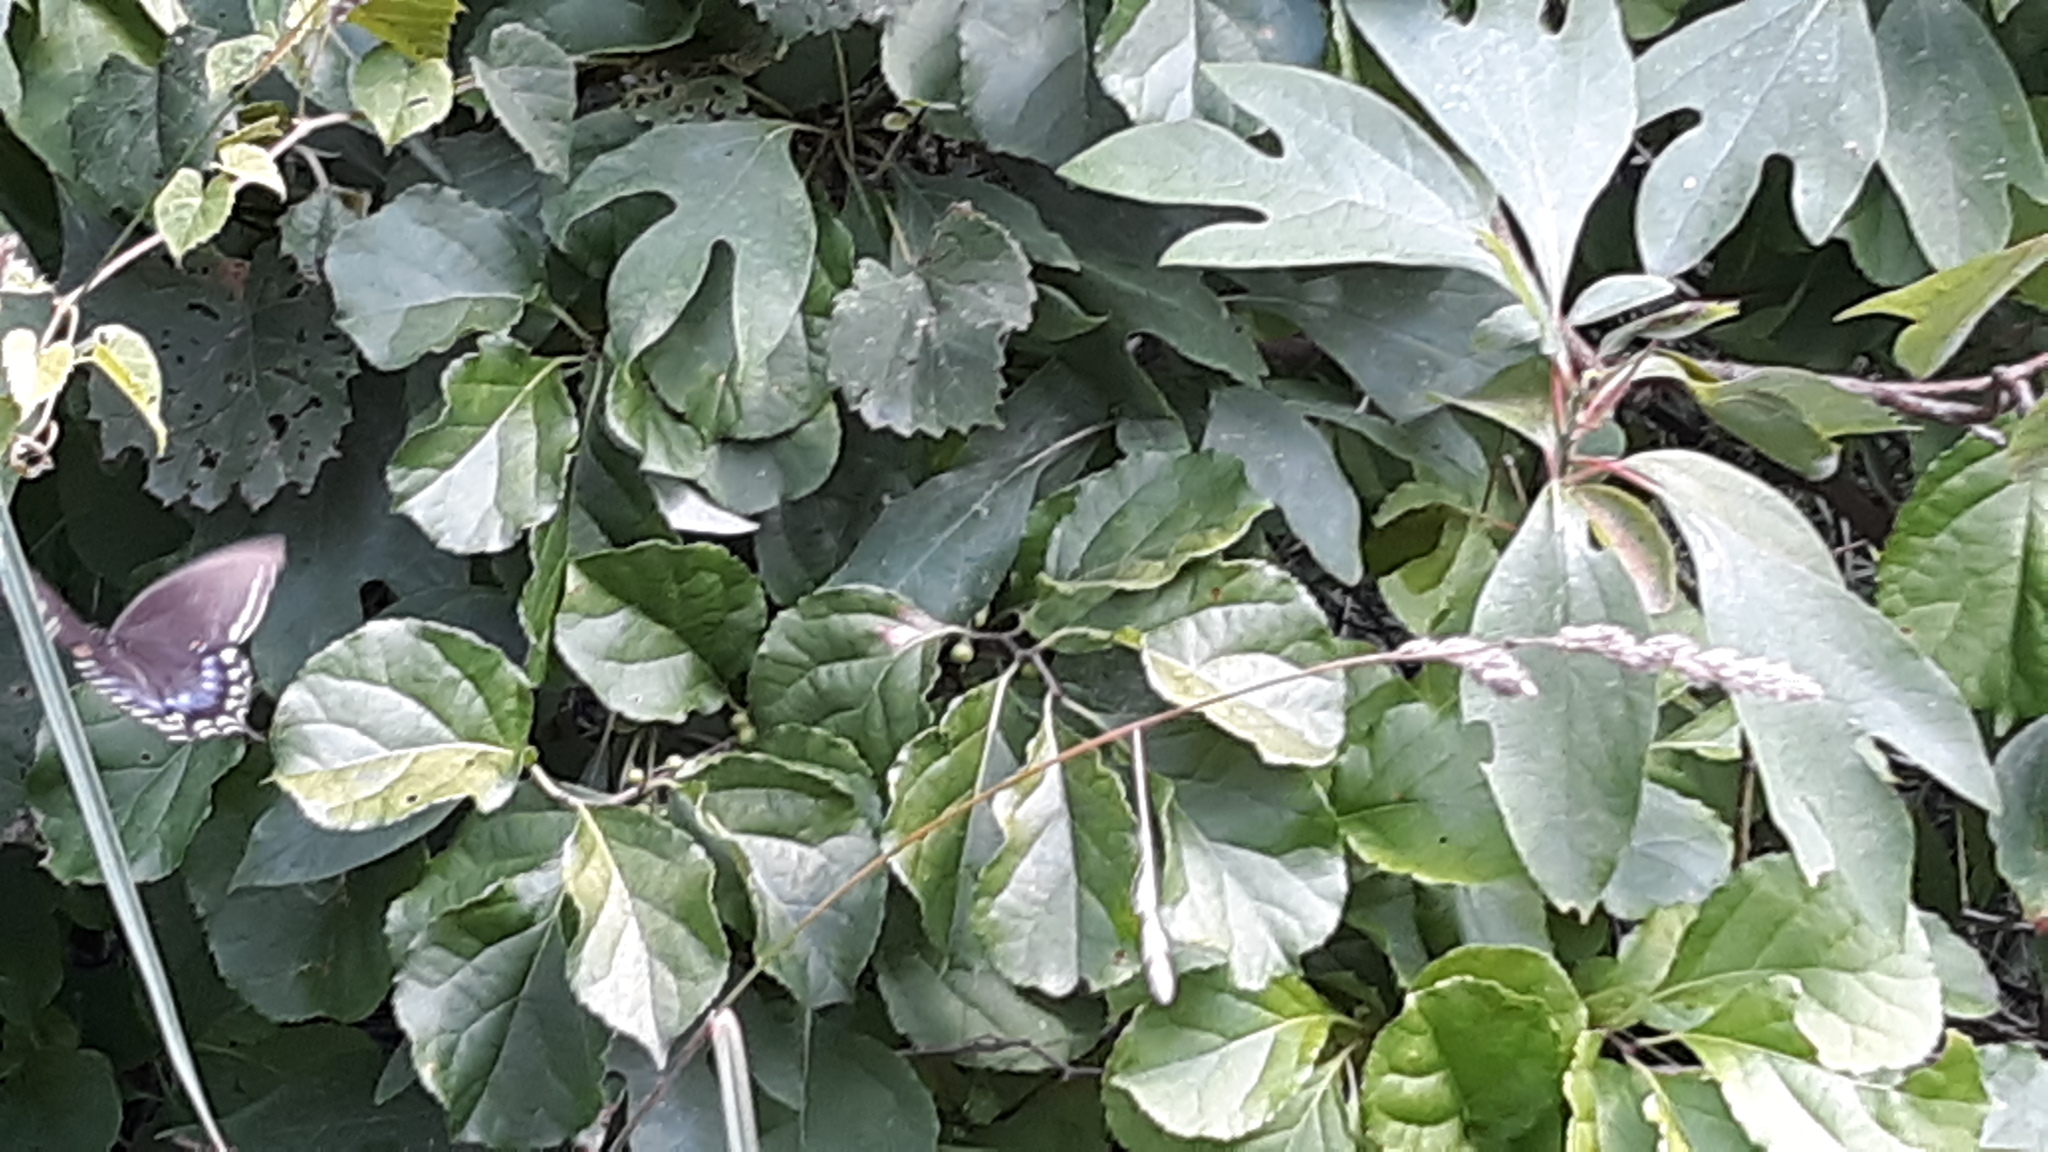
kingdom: Animalia
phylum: Arthropoda
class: Insecta
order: Lepidoptera
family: Papilionidae
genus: Papilio
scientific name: Papilio troilus
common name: Spicebush swallowtail
